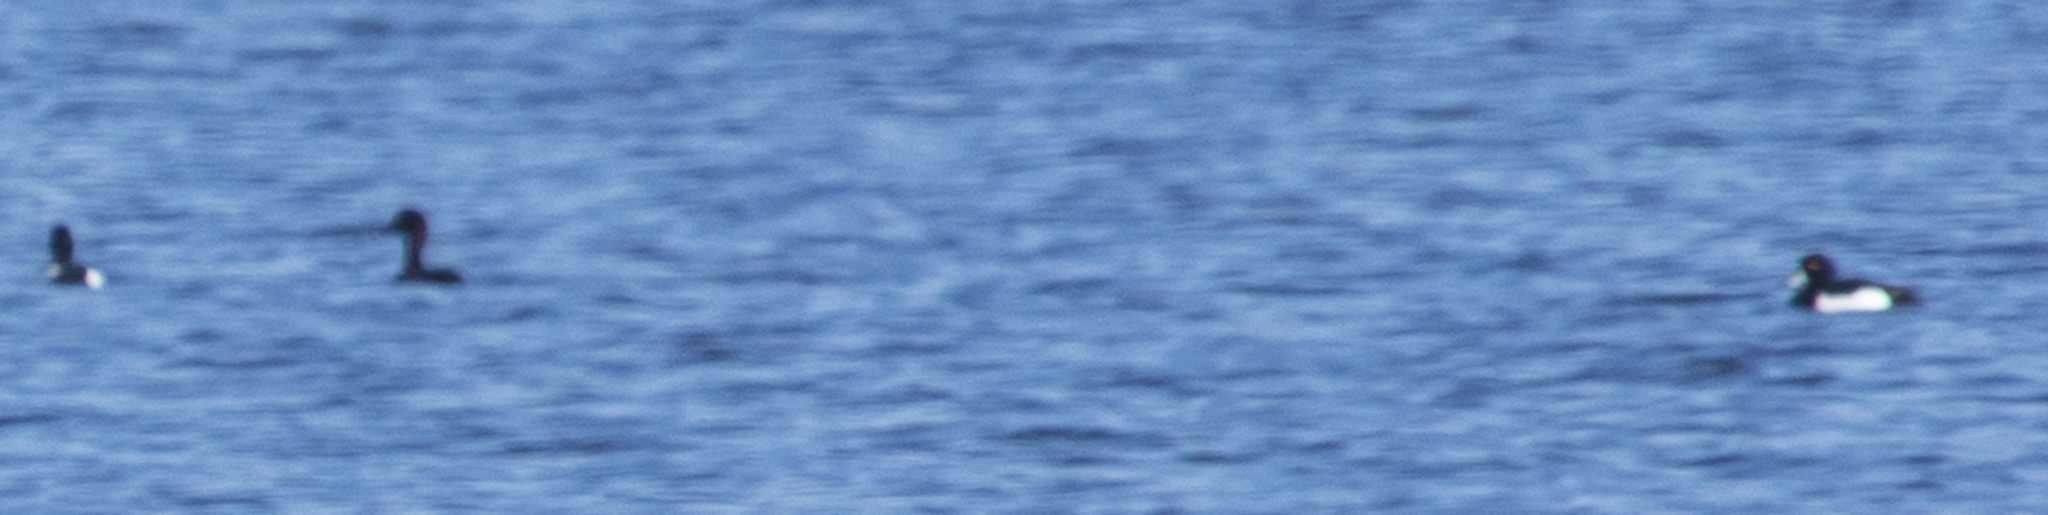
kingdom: Animalia
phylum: Chordata
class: Aves
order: Anseriformes
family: Anatidae
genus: Aythya
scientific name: Aythya fuligula
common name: Tufted duck
